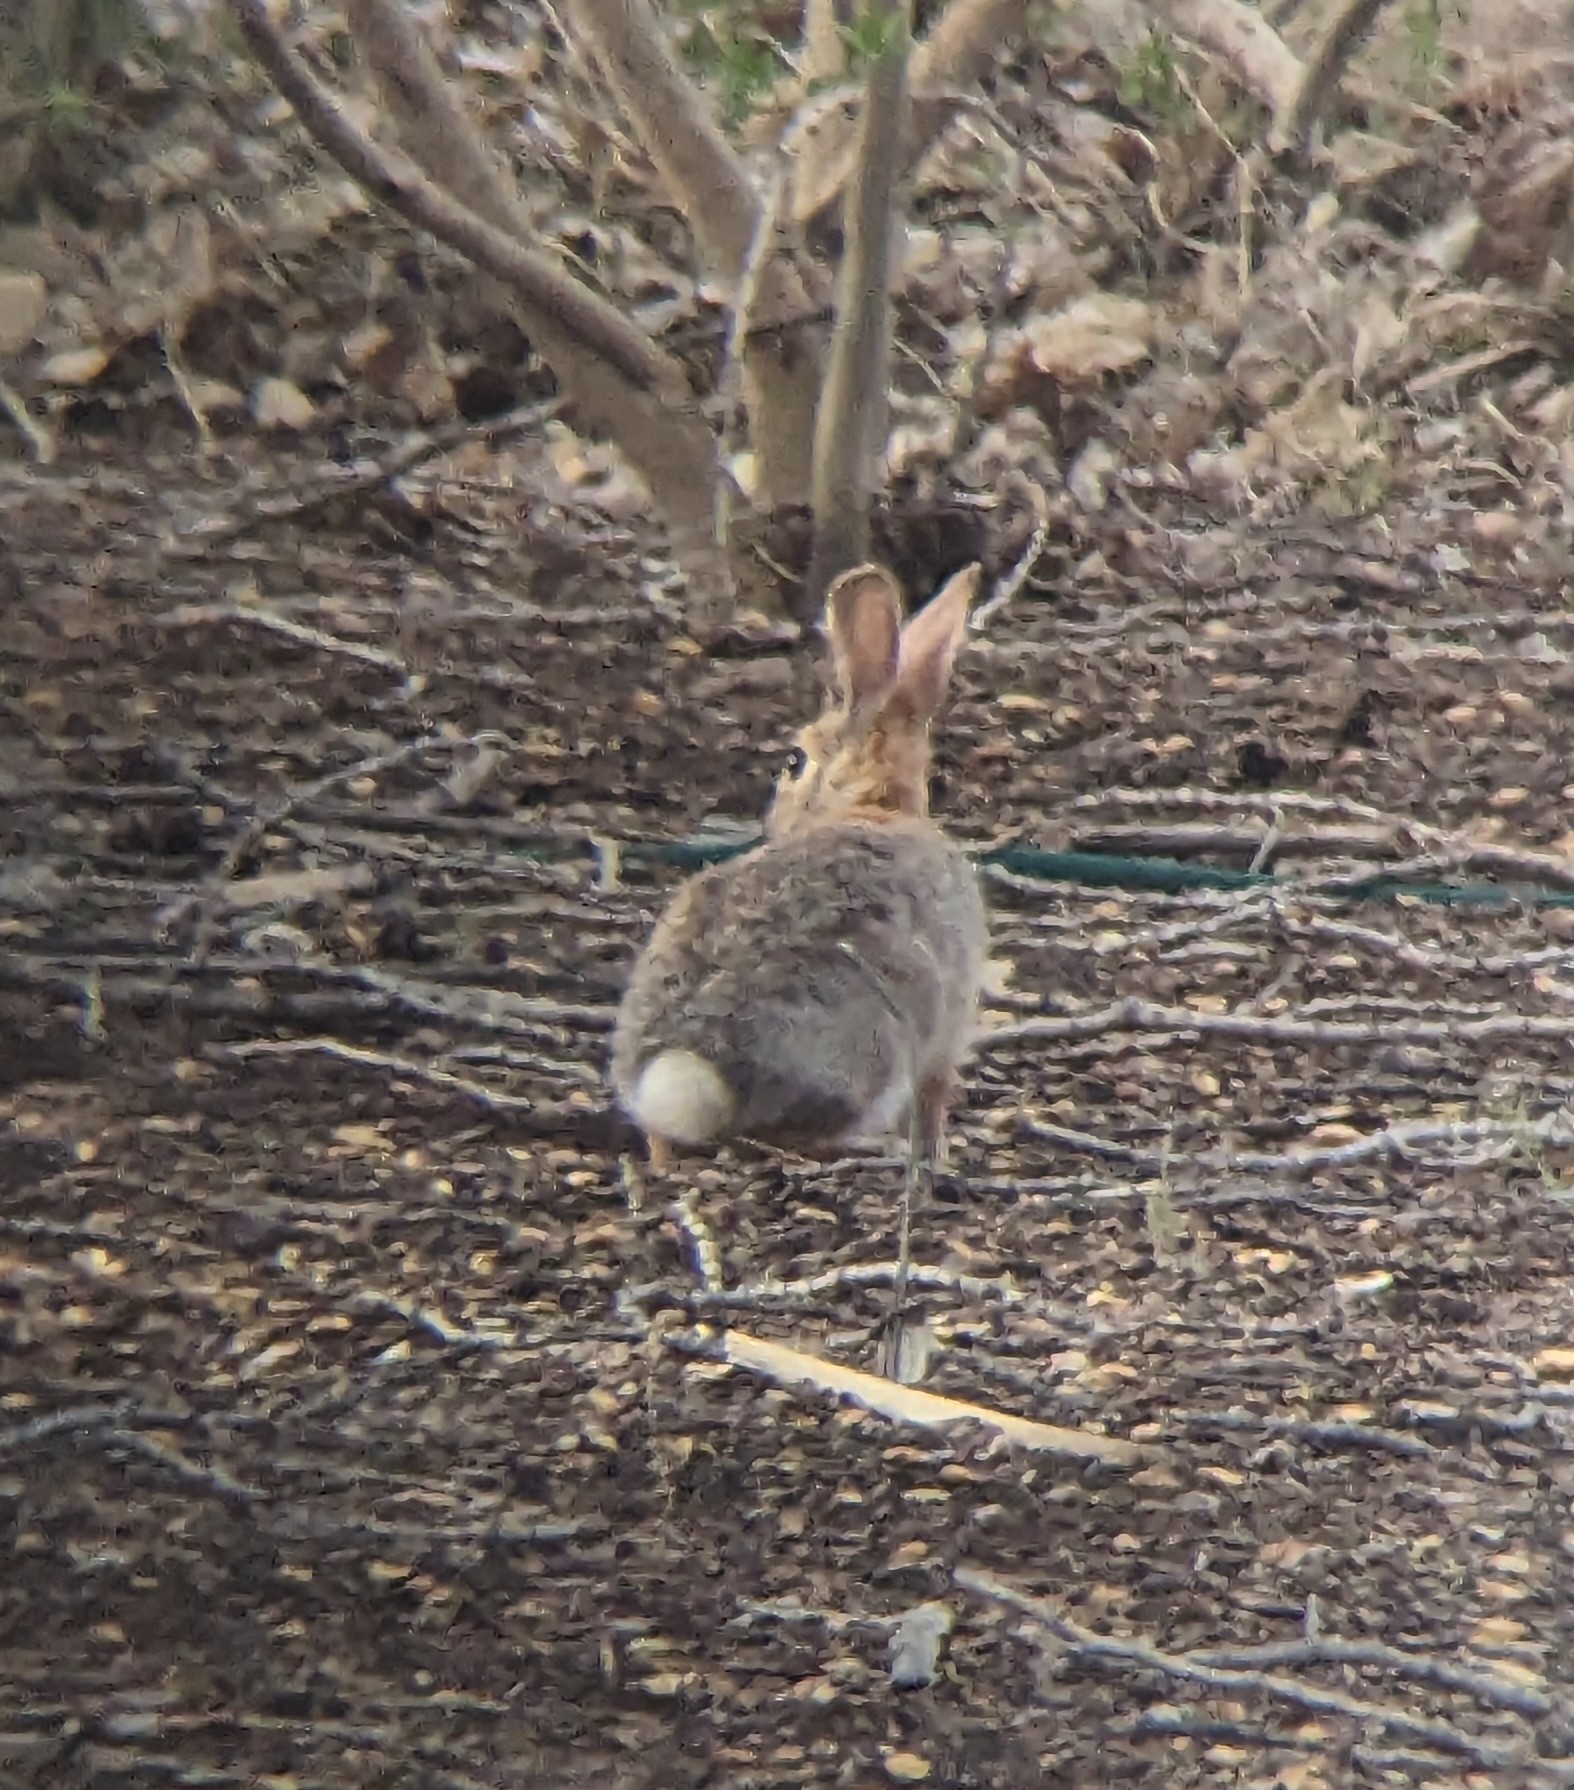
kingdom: Animalia
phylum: Chordata
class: Mammalia
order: Lagomorpha
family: Leporidae
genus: Sylvilagus
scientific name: Sylvilagus audubonii
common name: Desert cottontail
